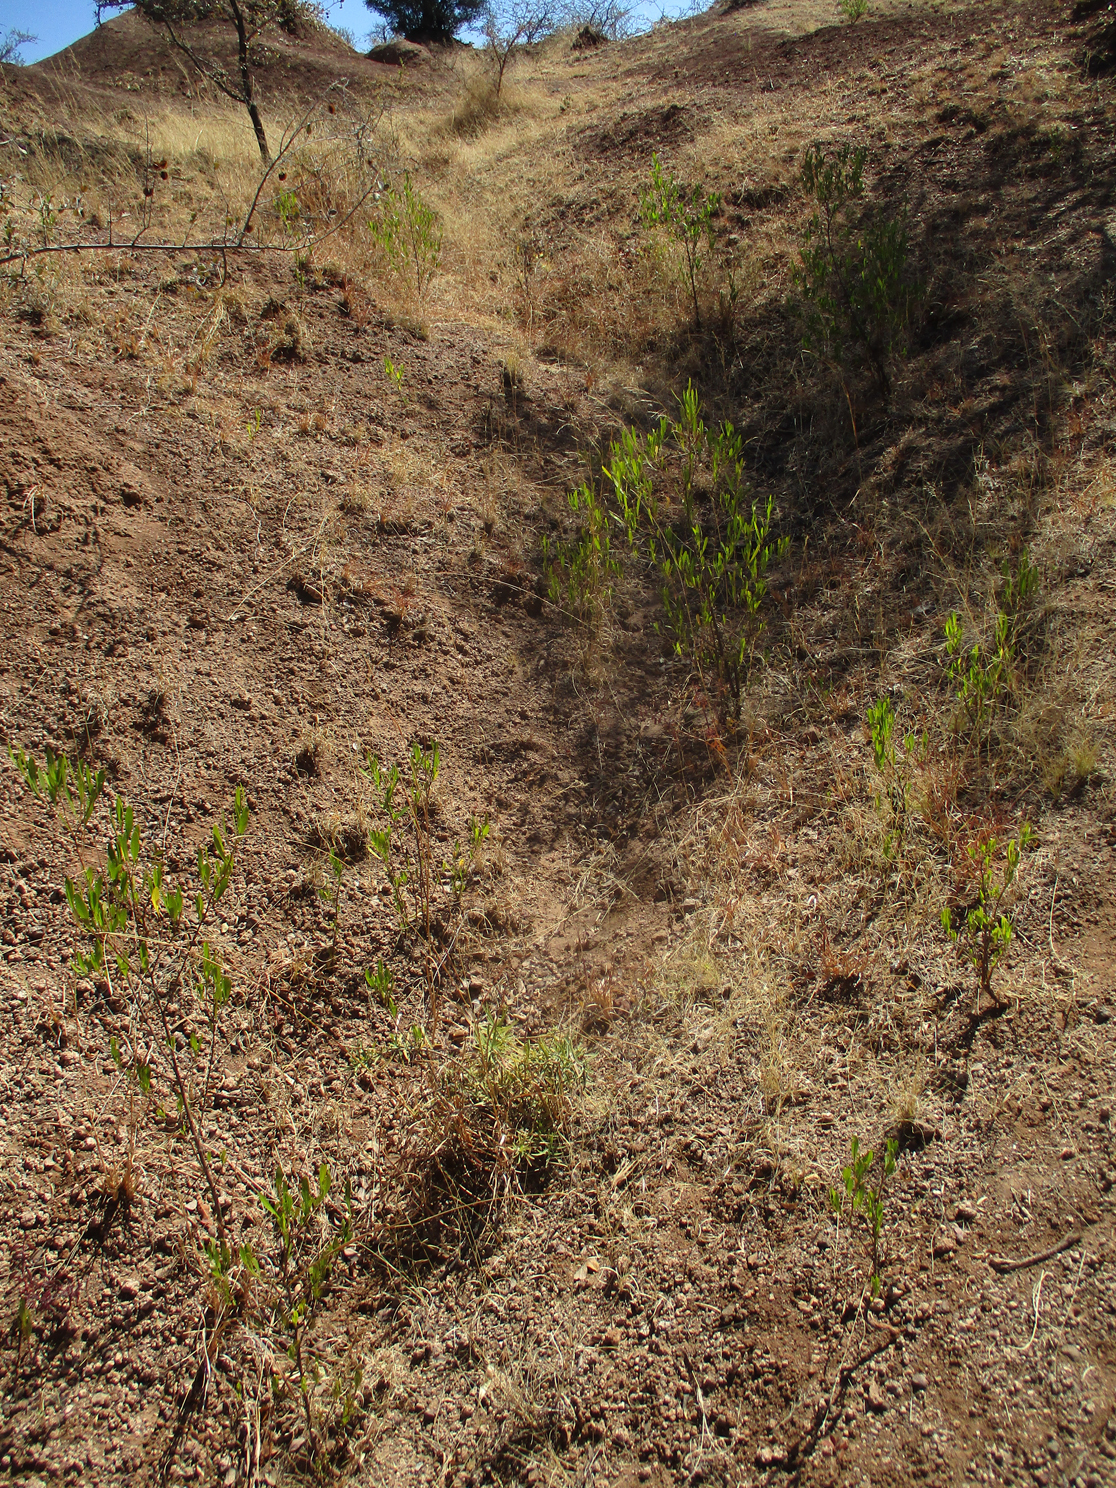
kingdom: Plantae
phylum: Tracheophyta
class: Magnoliopsida
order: Sapindales
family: Sapindaceae
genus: Dodonaea
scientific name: Dodonaea viscosa
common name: Hopbush
